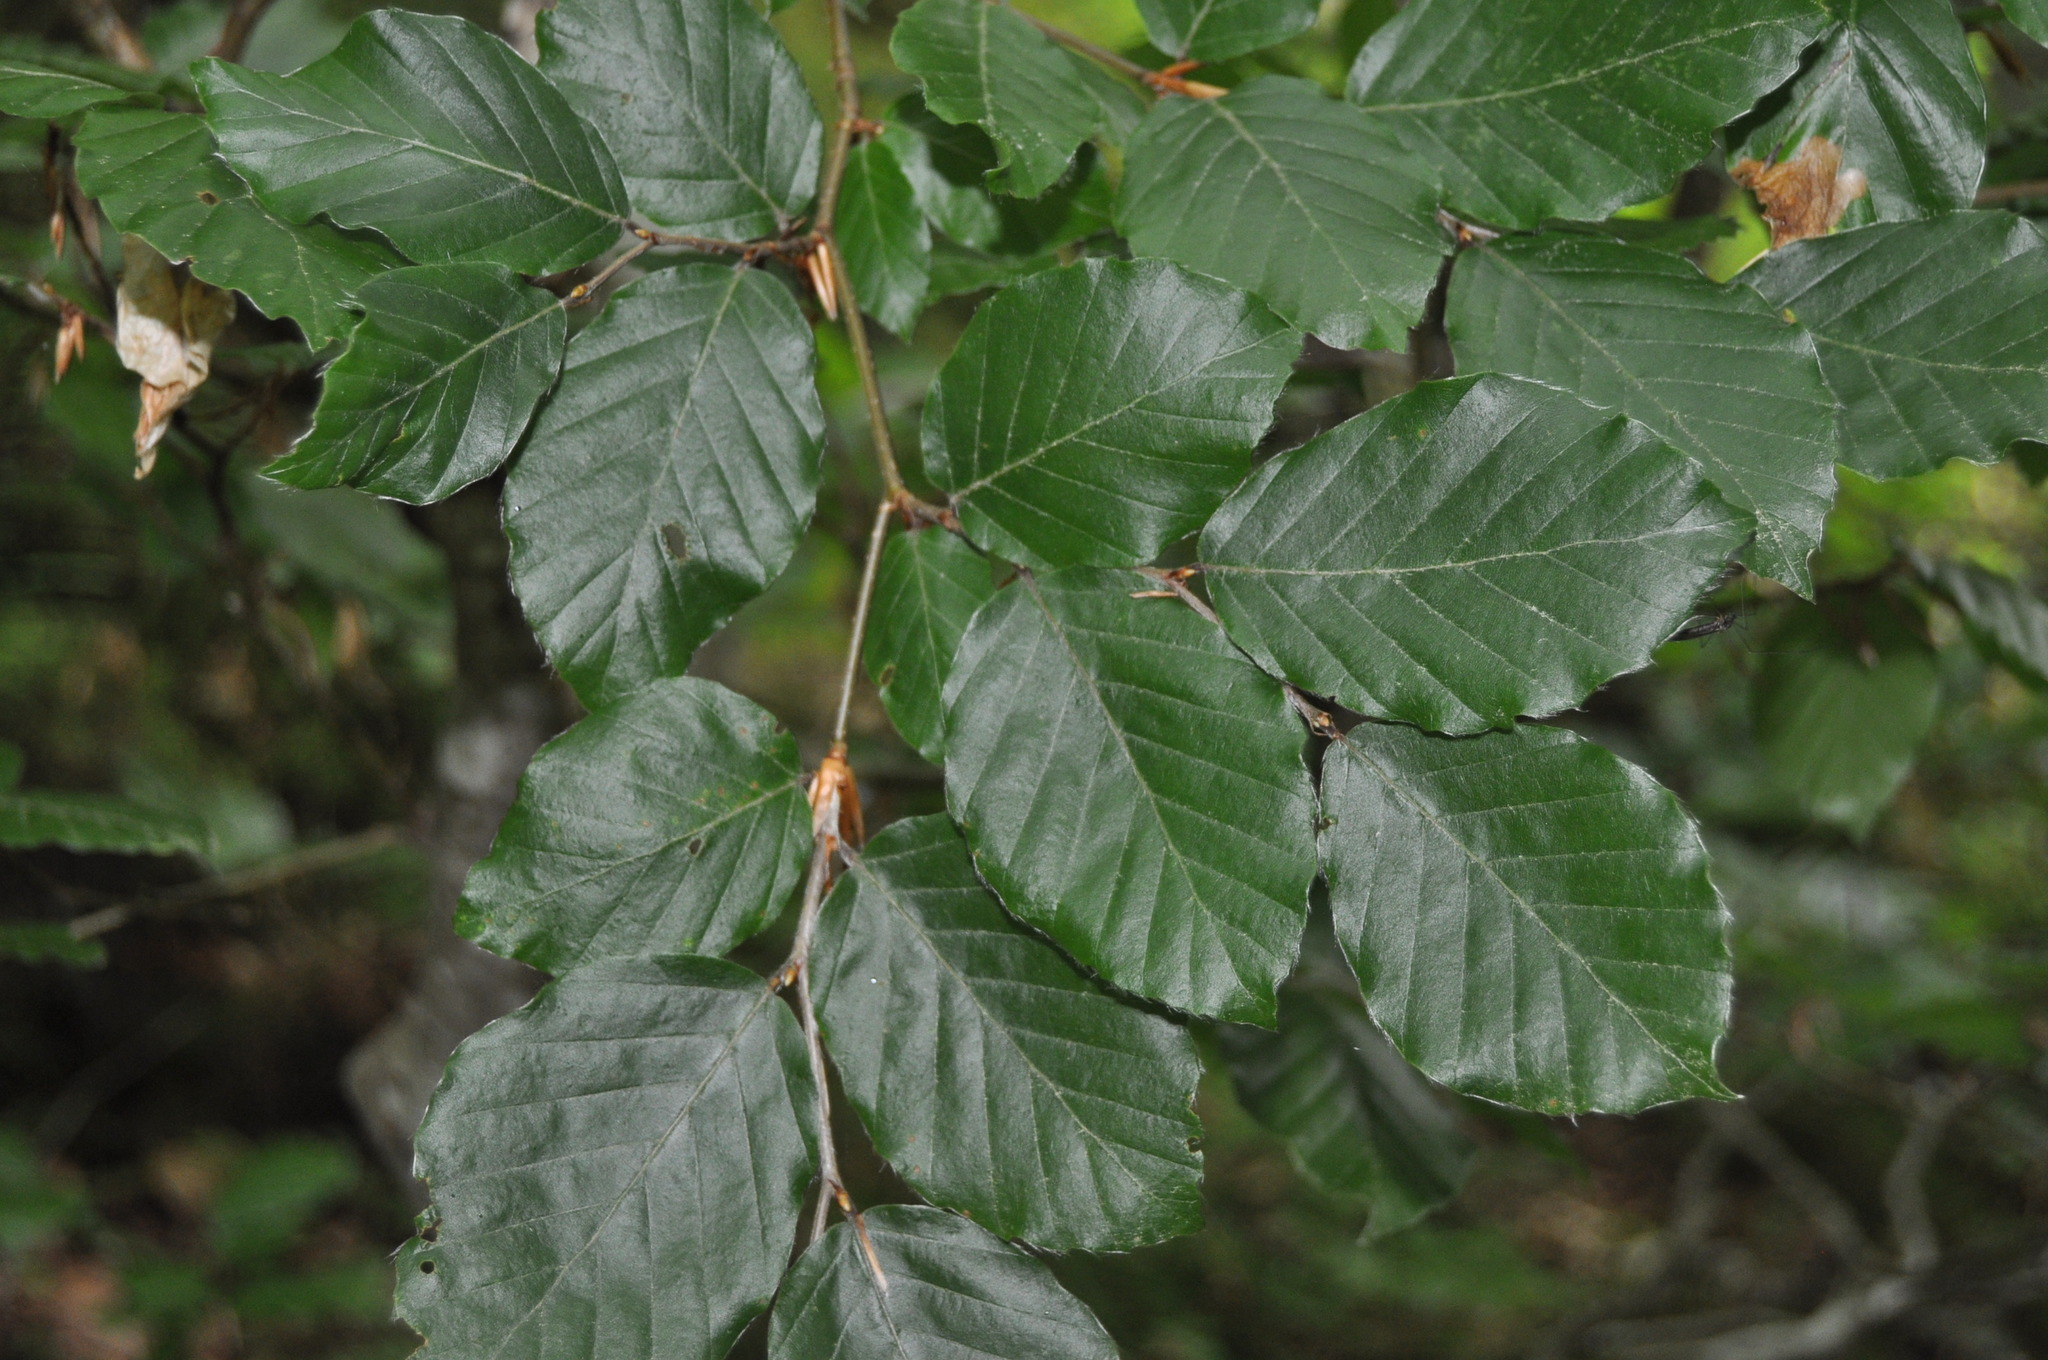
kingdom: Plantae
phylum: Tracheophyta
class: Magnoliopsida
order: Fagales
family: Fagaceae
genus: Fagus
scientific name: Fagus sylvatica
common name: Beech
